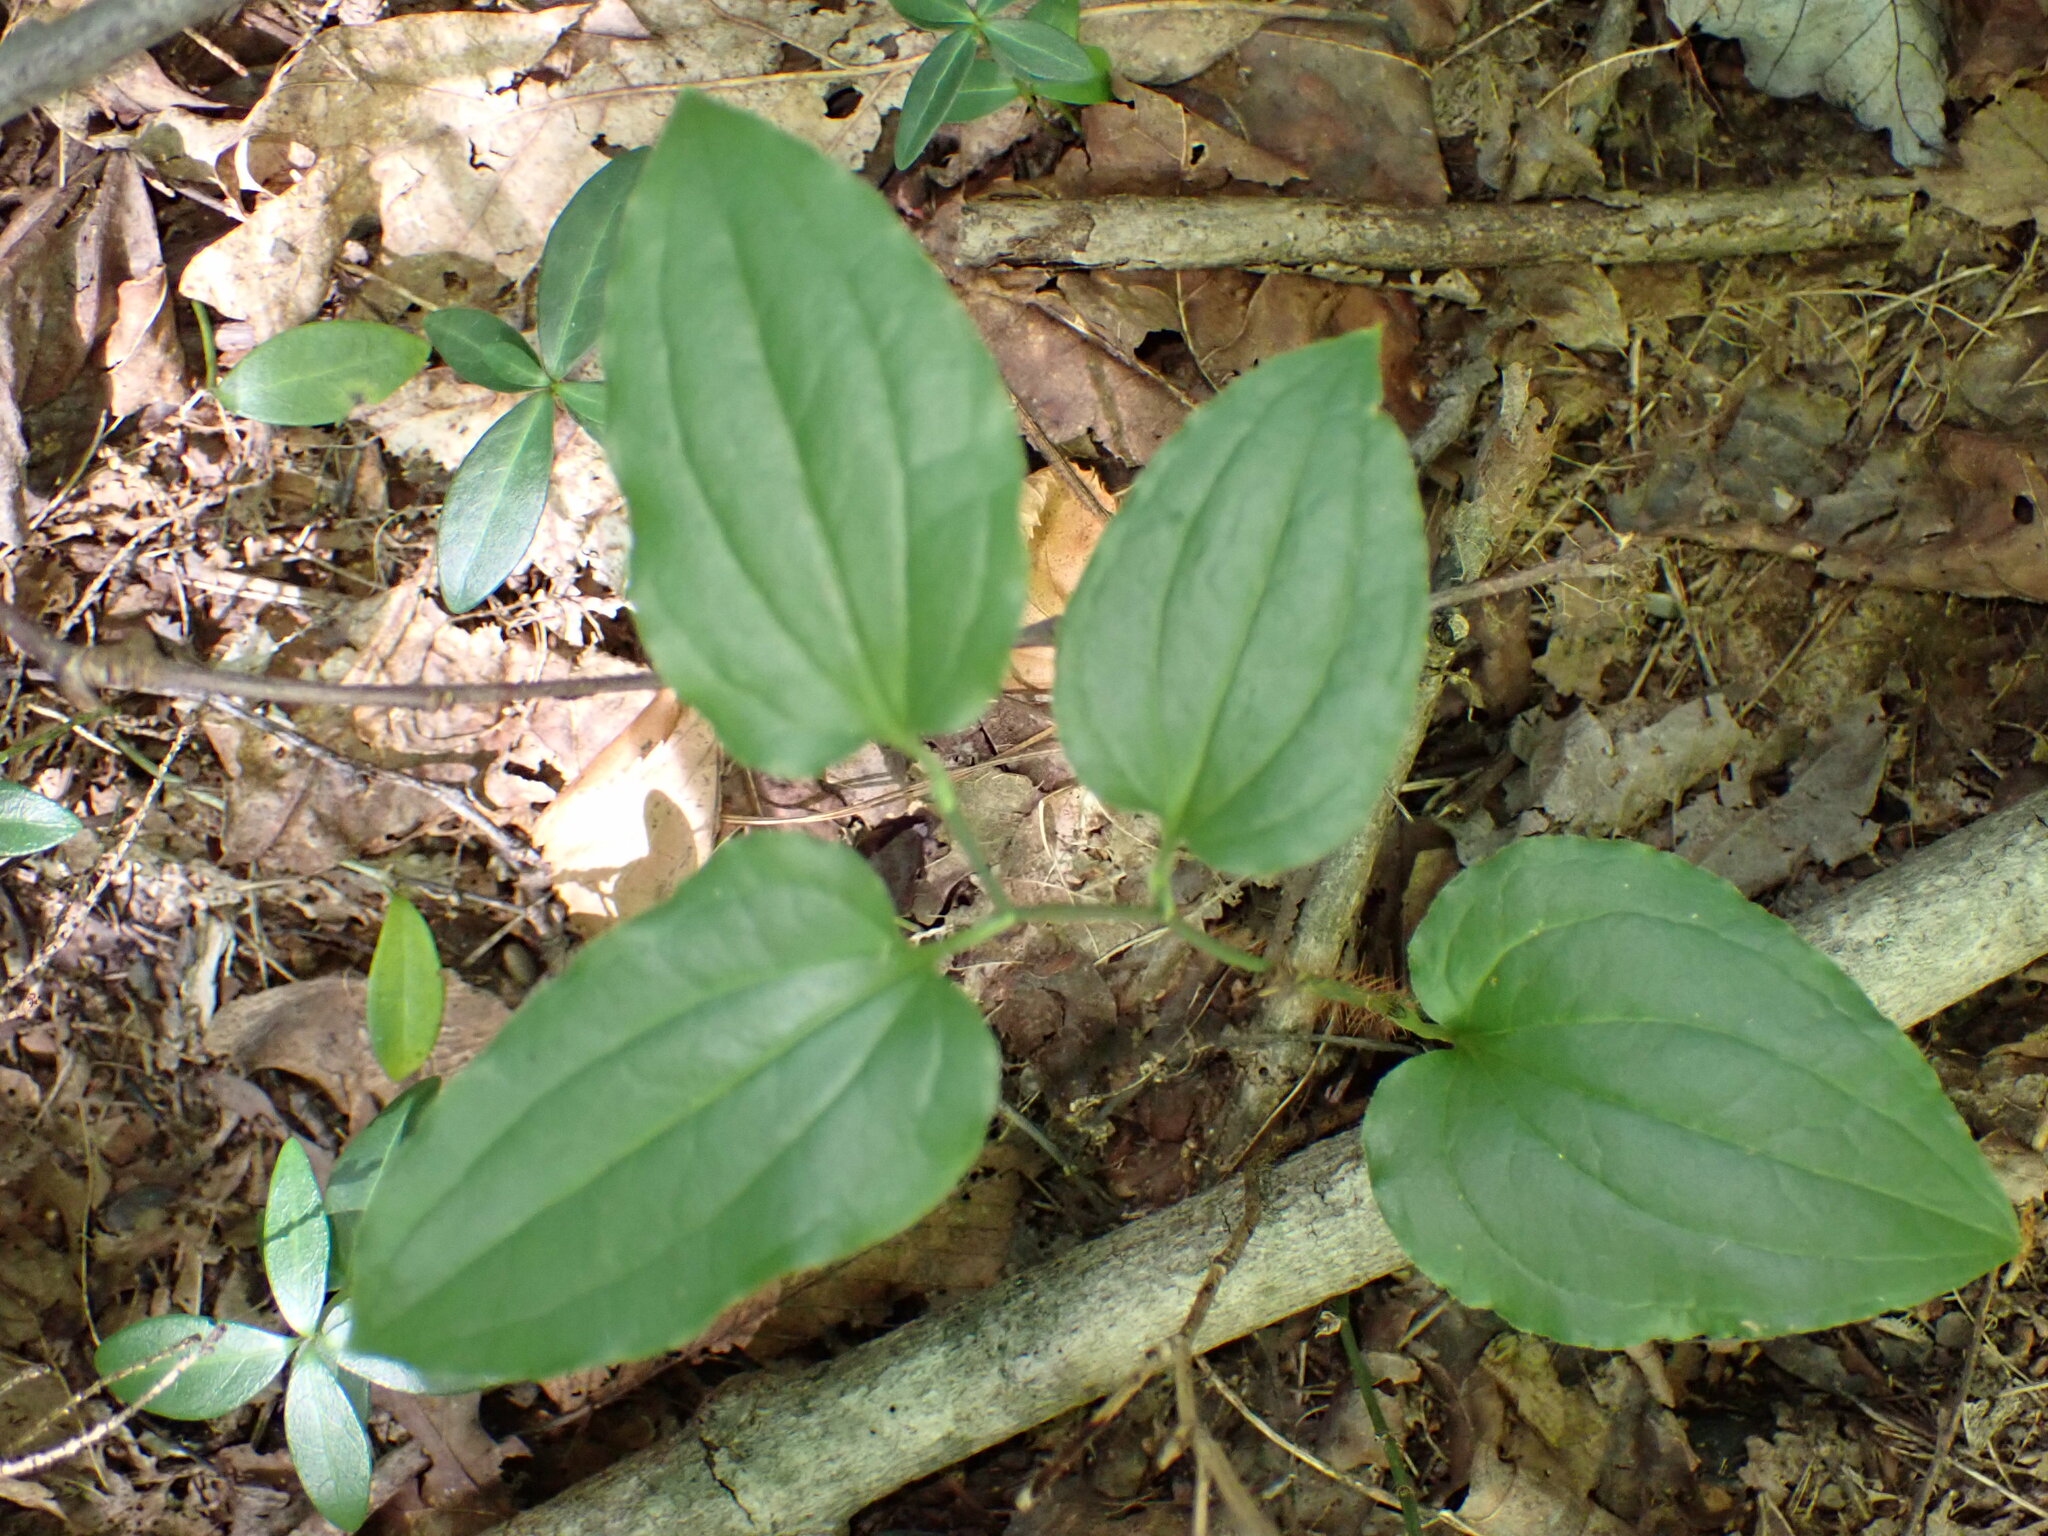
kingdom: Plantae
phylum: Tracheophyta
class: Liliopsida
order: Liliales
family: Smilacaceae
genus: Smilax
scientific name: Smilax tamnoides
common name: Hellfetter
